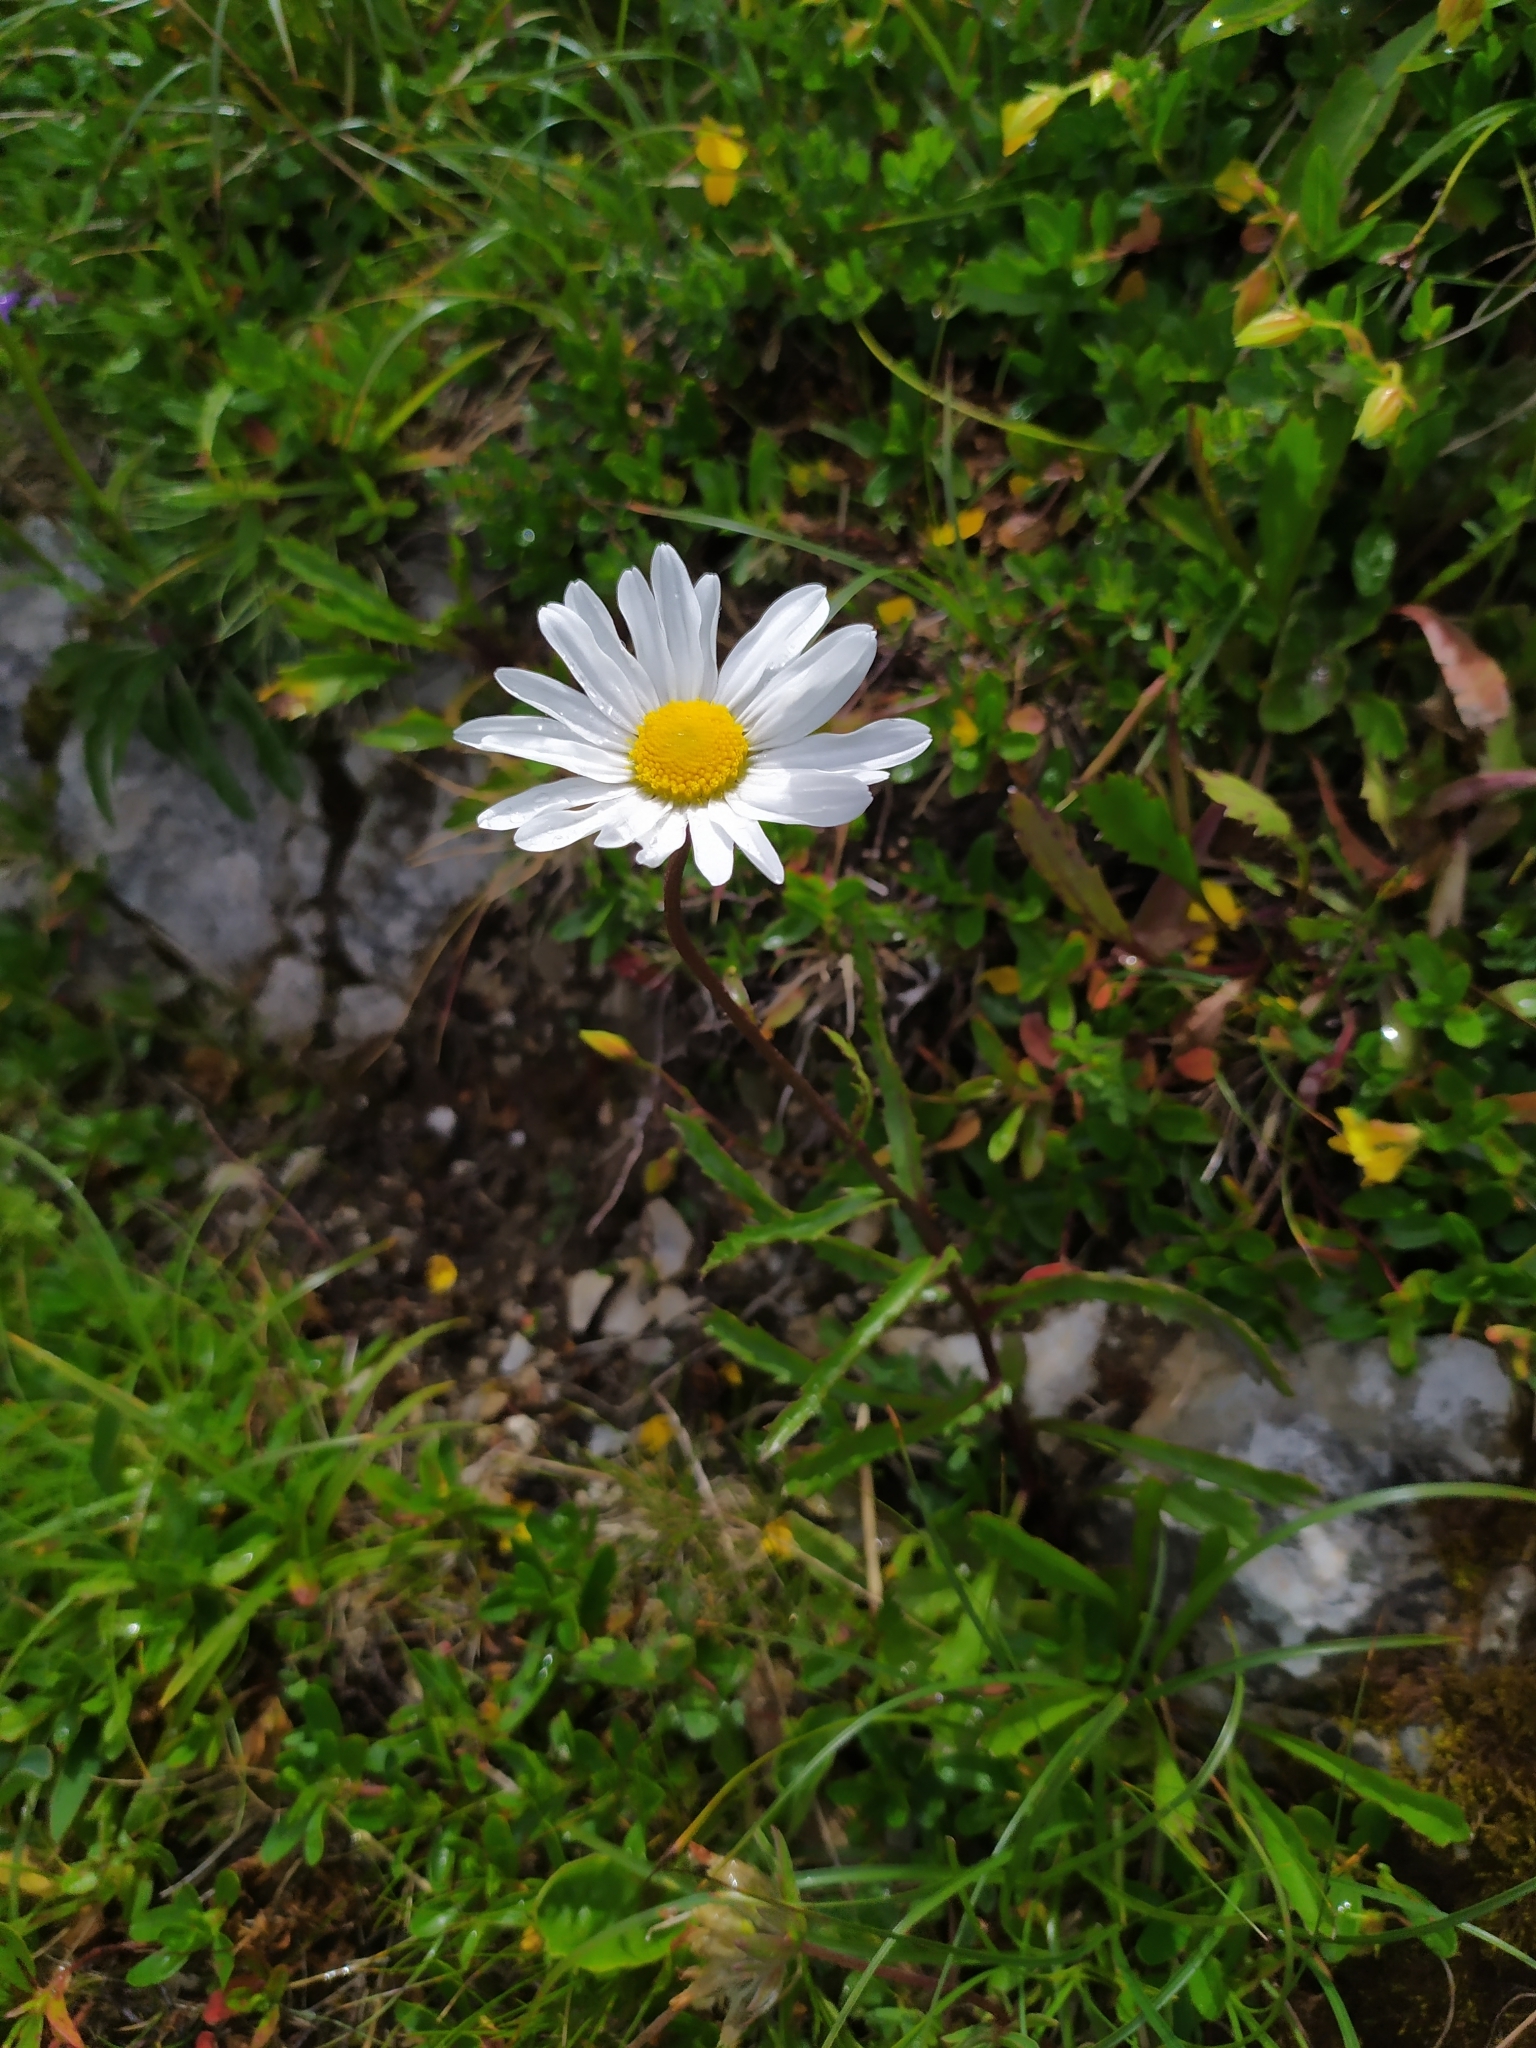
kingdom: Plantae
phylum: Tracheophyta
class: Magnoliopsida
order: Asterales
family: Asteraceae
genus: Leucanthemum
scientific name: Leucanthemum atratum
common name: Saw-leaved moon-daisy
